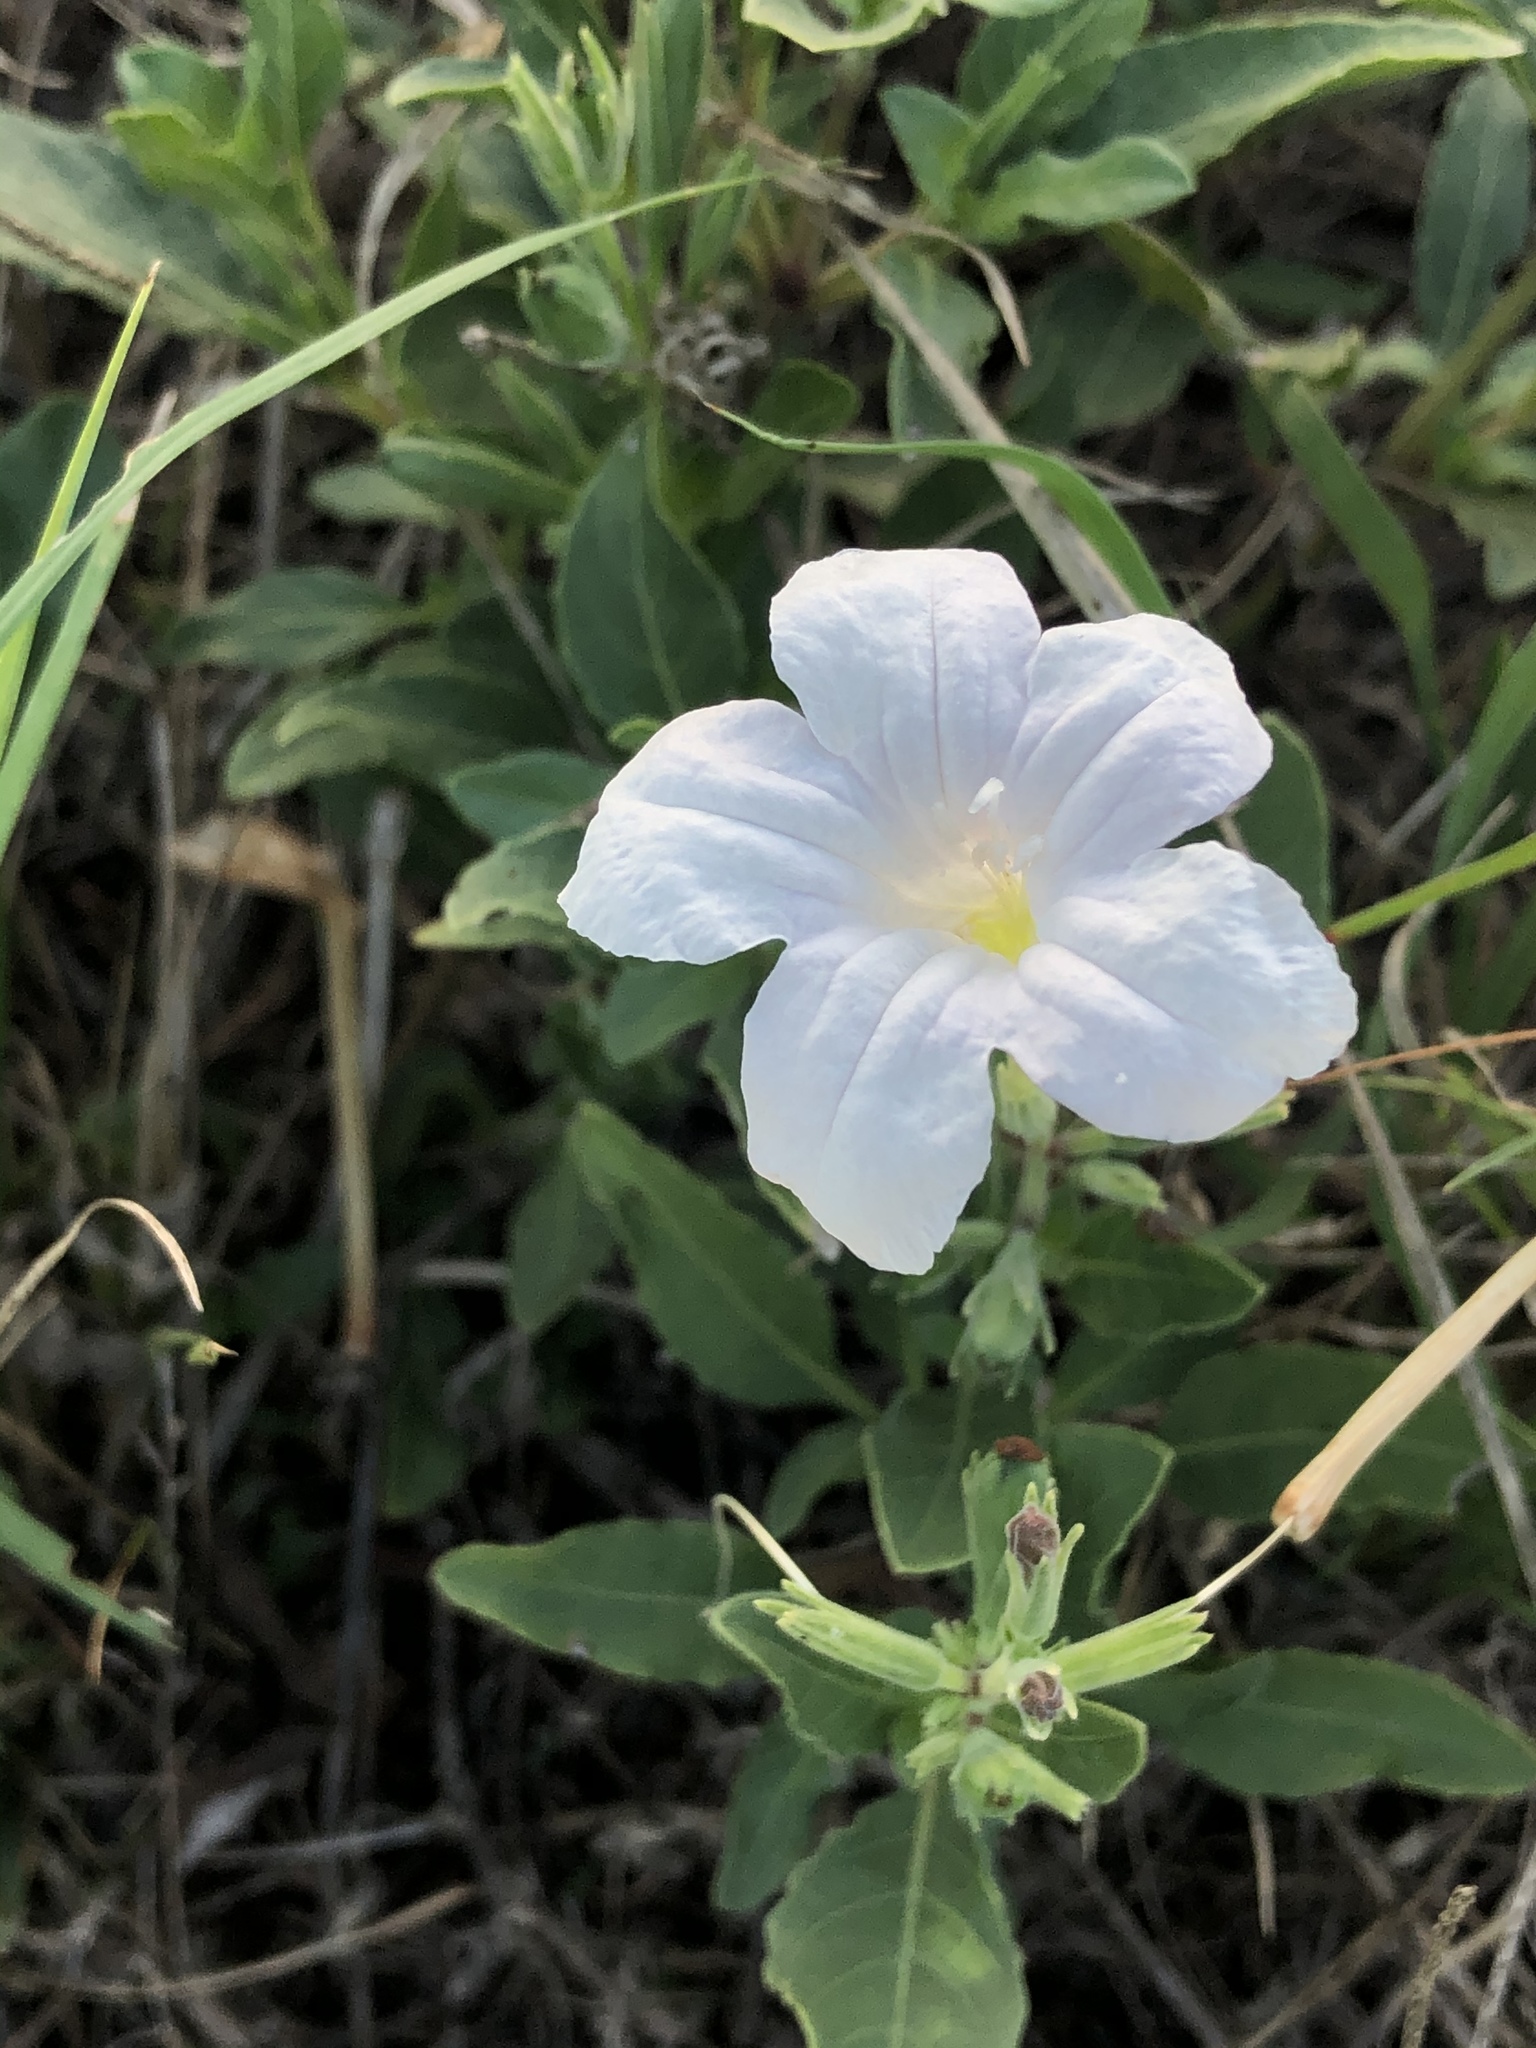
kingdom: Plantae
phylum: Tracheophyta
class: Magnoliopsida
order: Lamiales
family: Acanthaceae
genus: Ruellia
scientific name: Ruellia metziae
